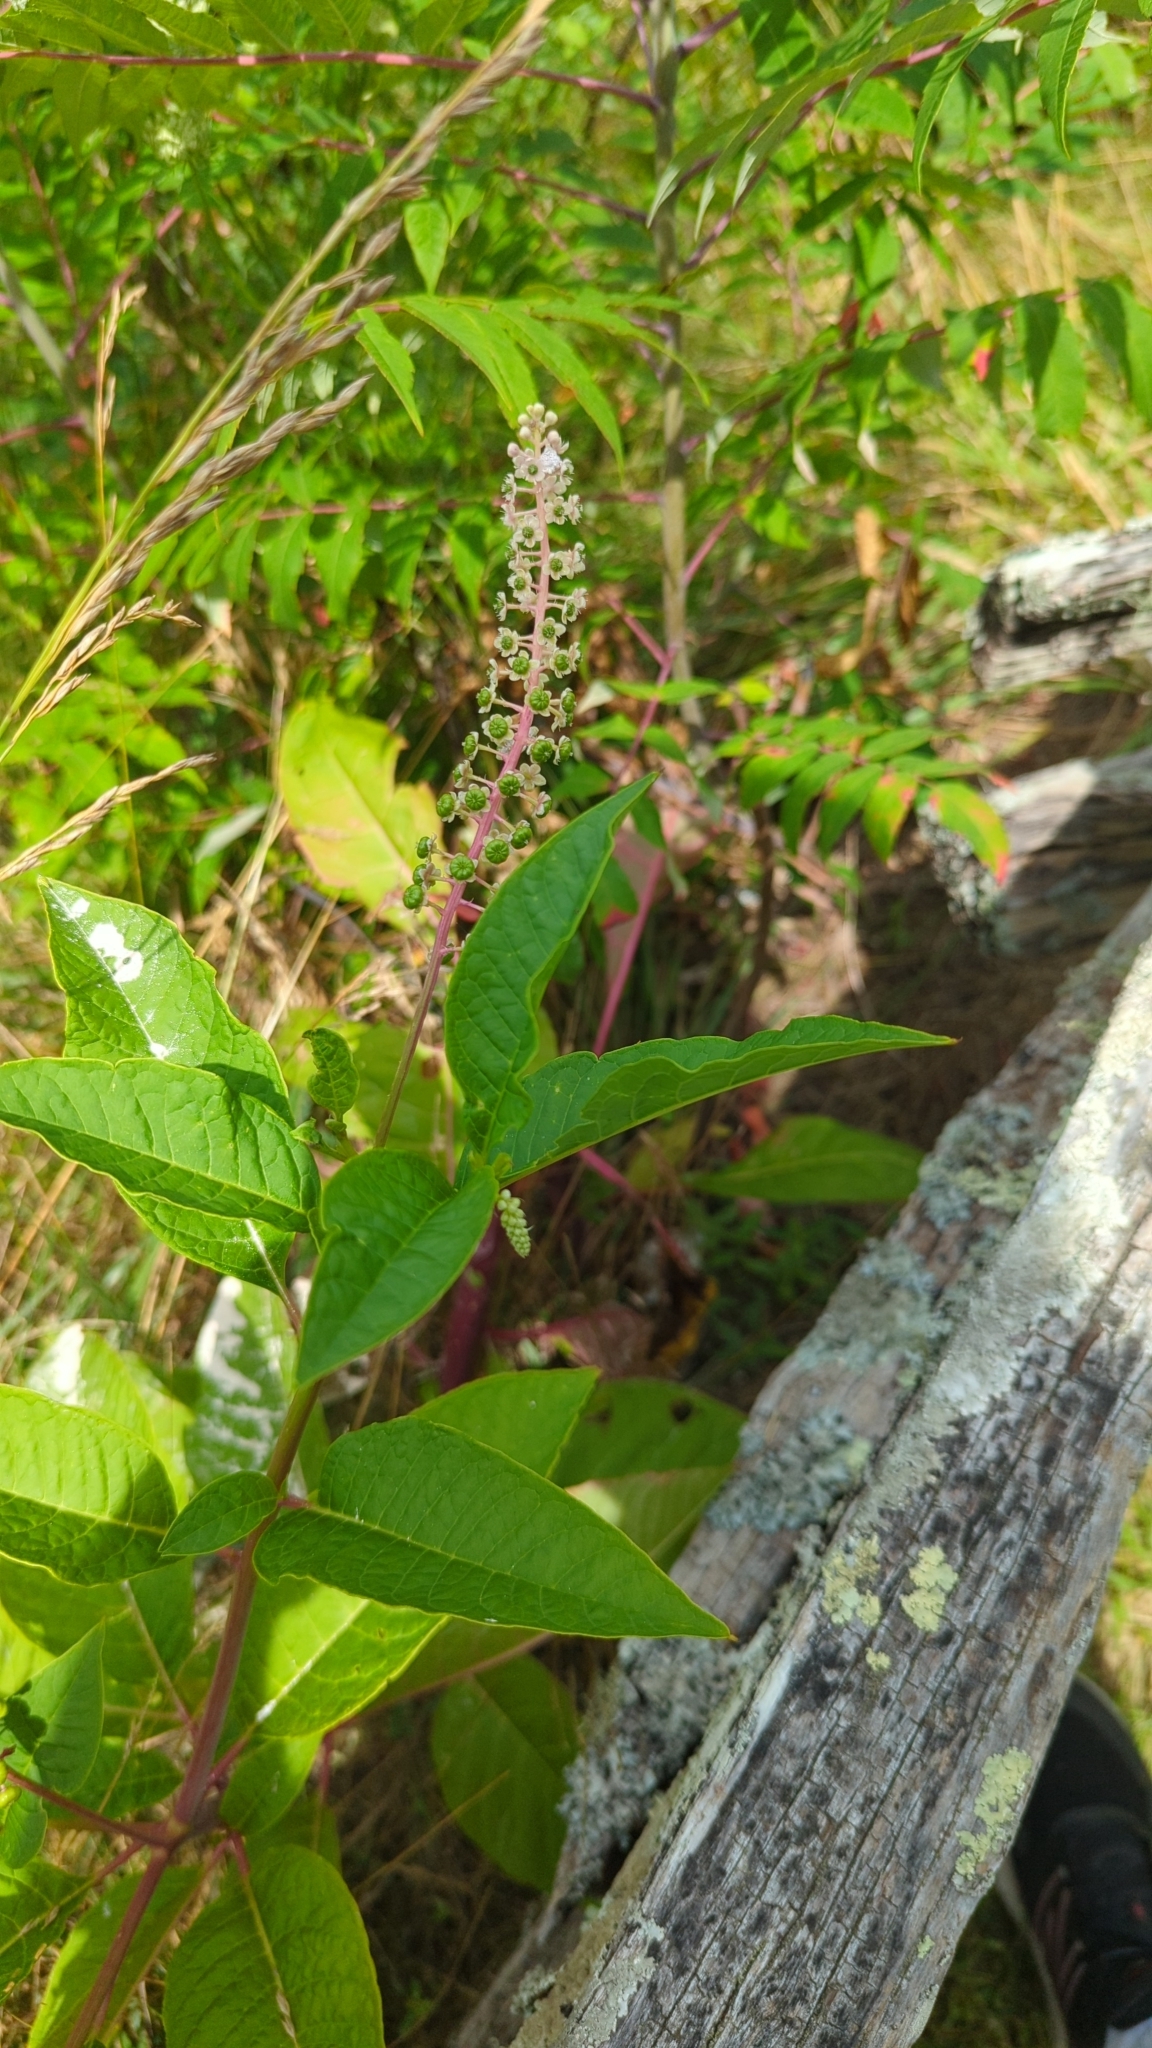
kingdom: Plantae
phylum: Tracheophyta
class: Magnoliopsida
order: Caryophyllales
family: Phytolaccaceae
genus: Phytolacca
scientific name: Phytolacca americana
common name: American pokeweed
